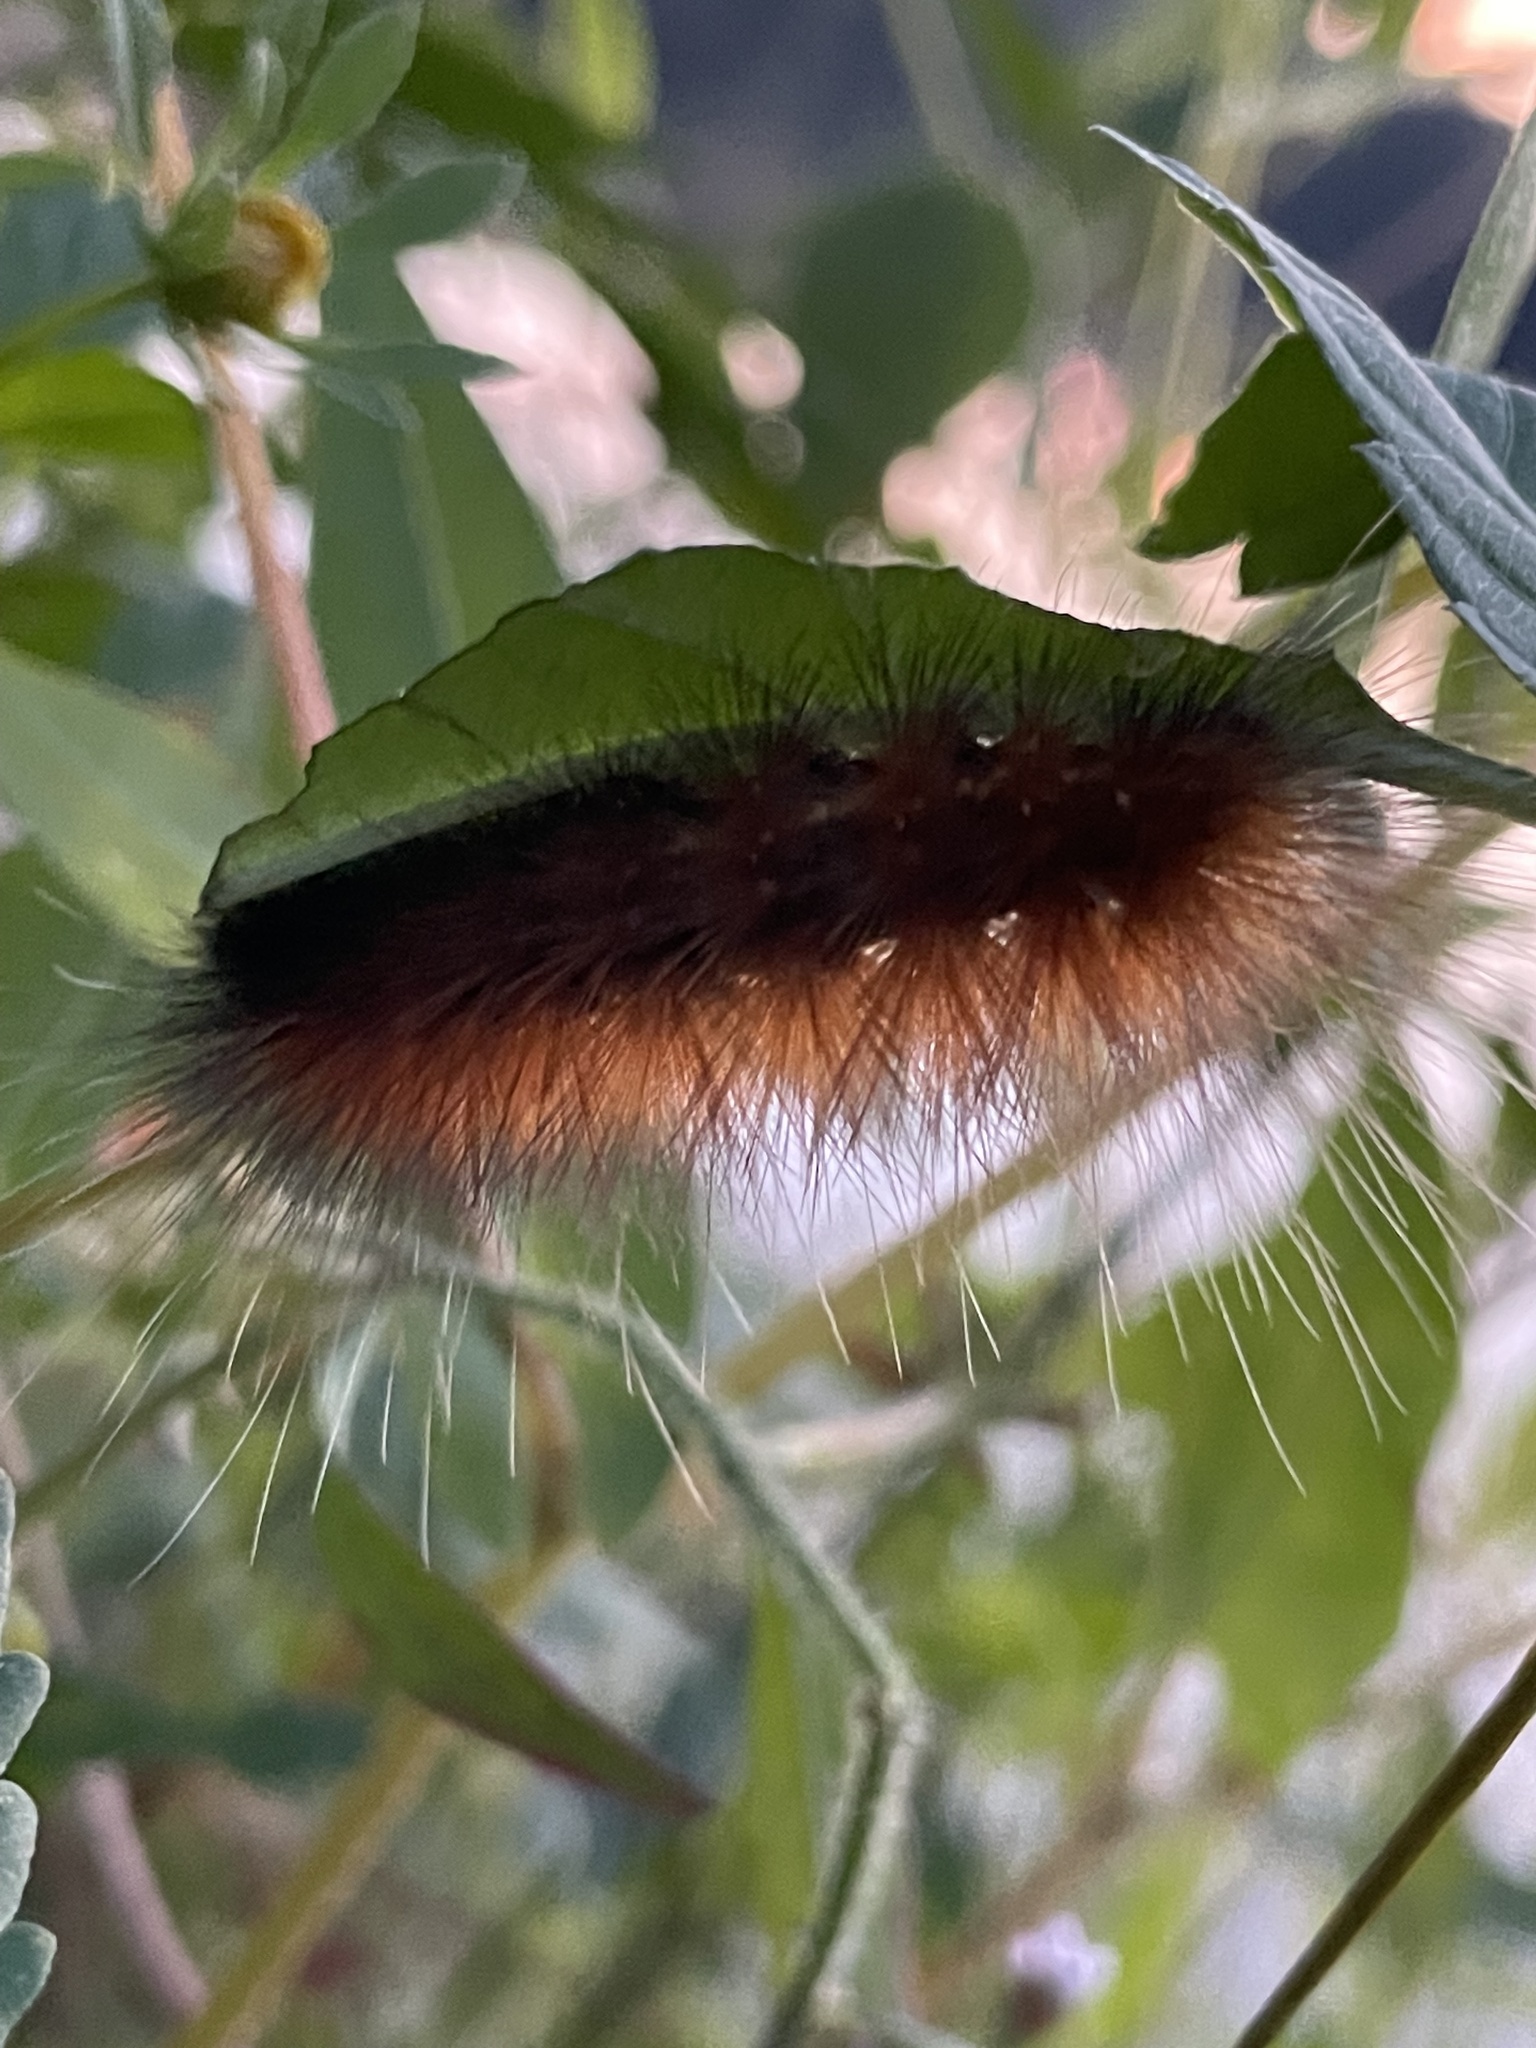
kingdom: Animalia
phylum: Arthropoda
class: Insecta
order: Lepidoptera
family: Erebidae
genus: Spilosoma
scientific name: Spilosoma virginica
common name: Virginia tiger moth
